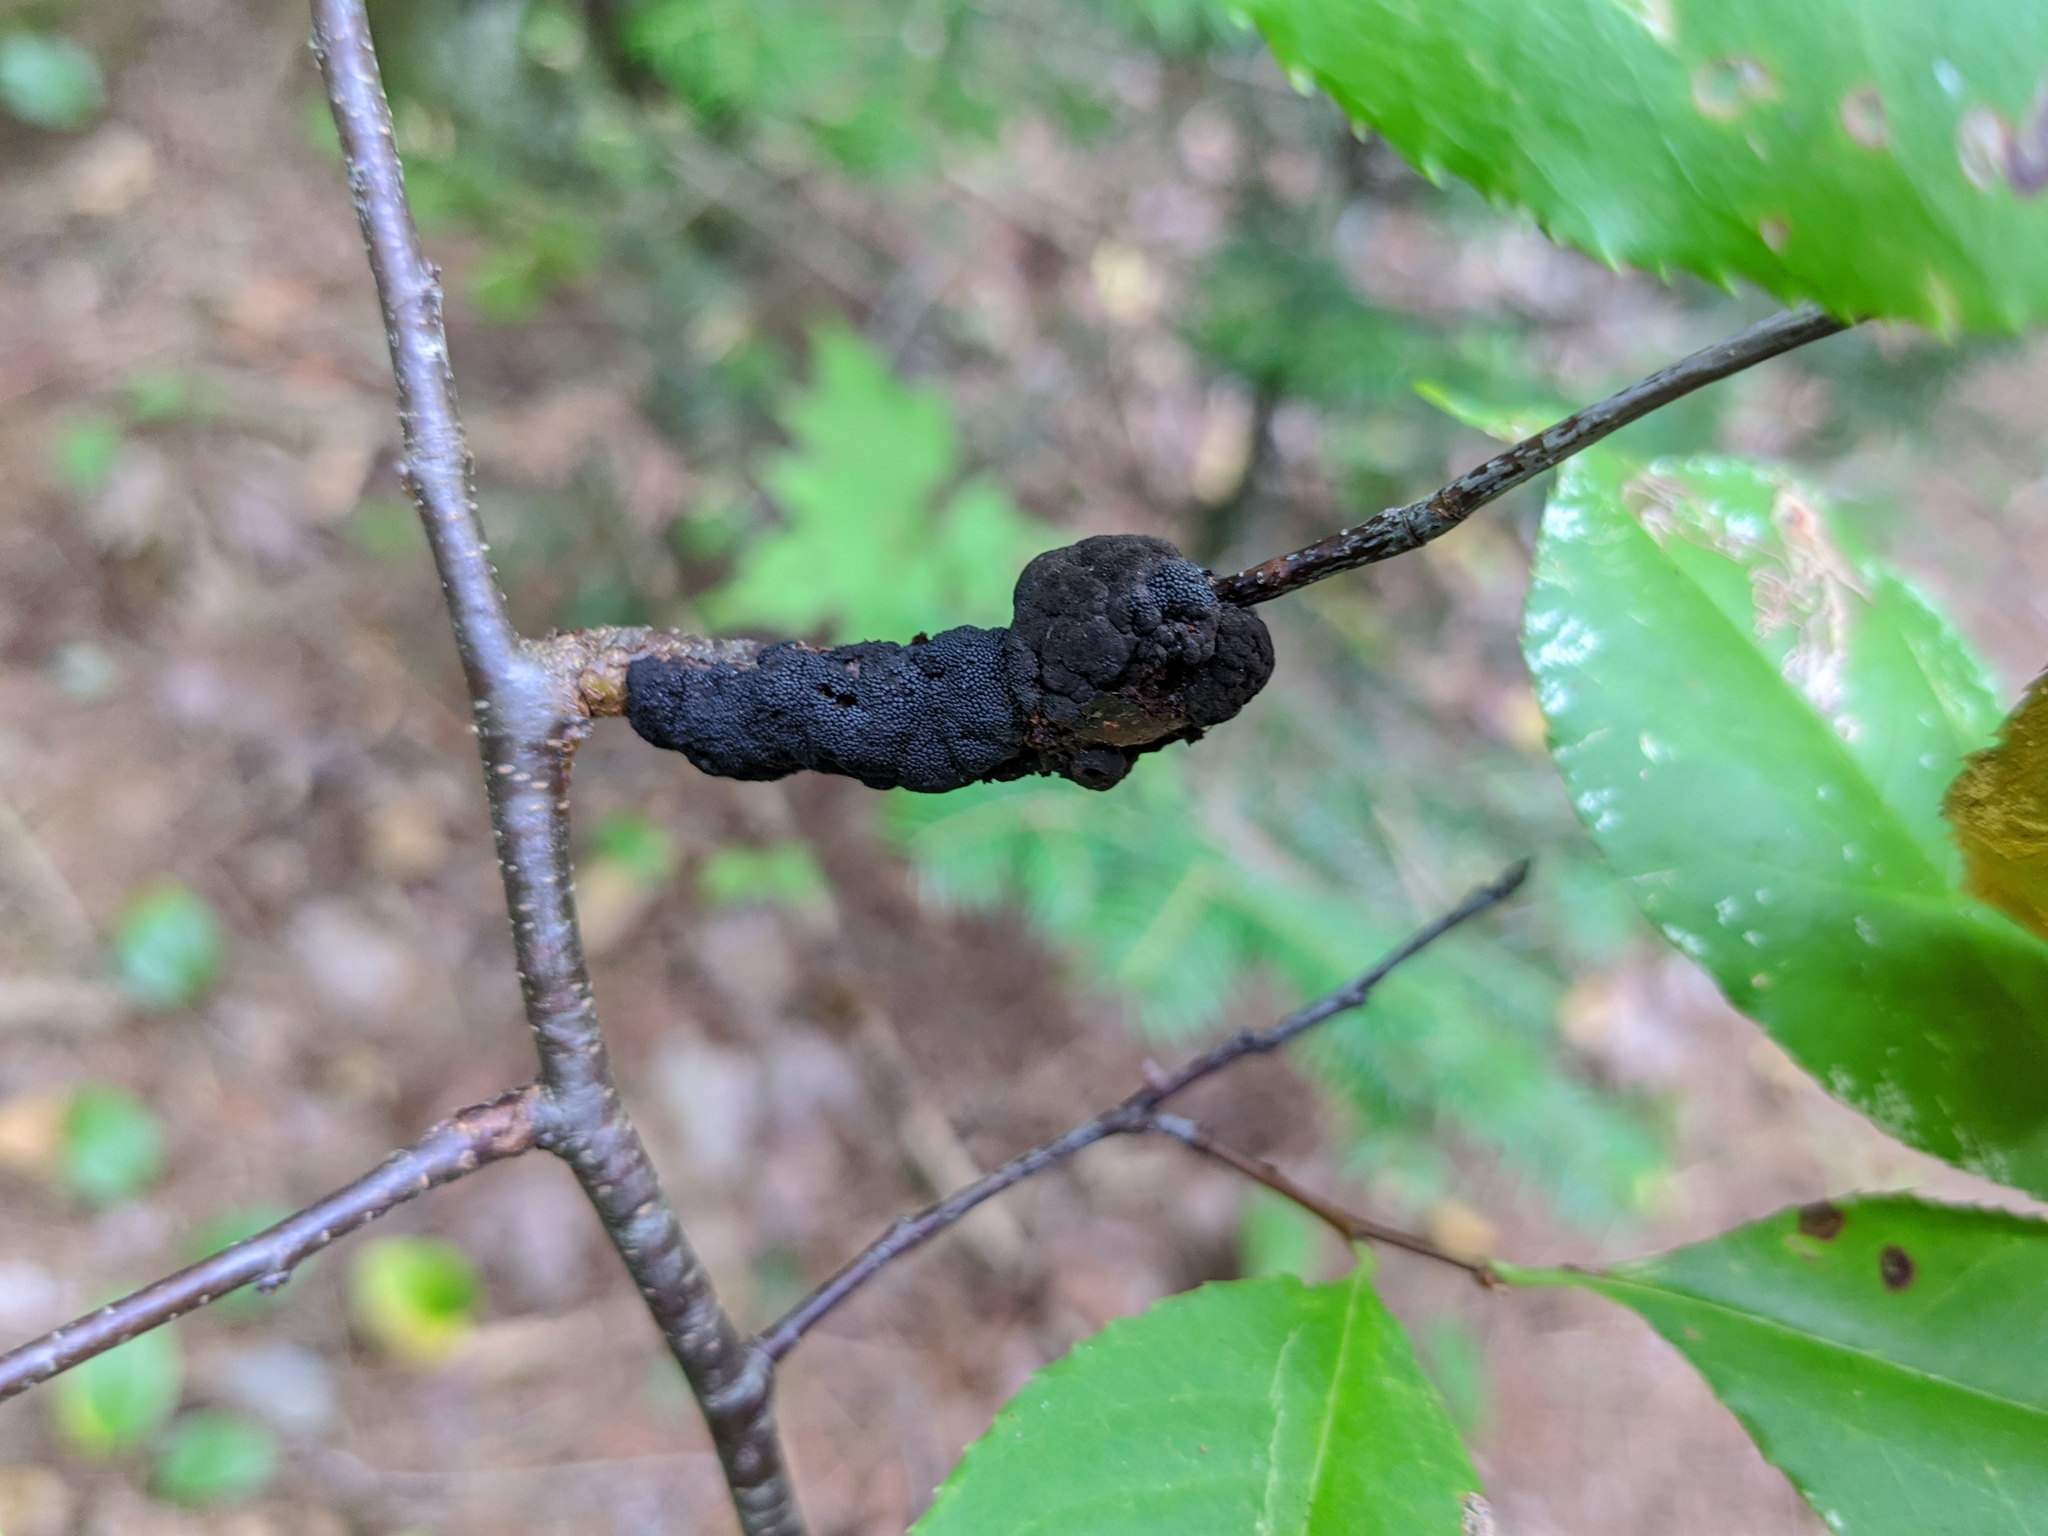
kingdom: Fungi
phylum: Ascomycota
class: Dothideomycetes
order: Venturiales
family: Venturiaceae
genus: Apiosporina
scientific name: Apiosporina morbosa
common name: Black knot
